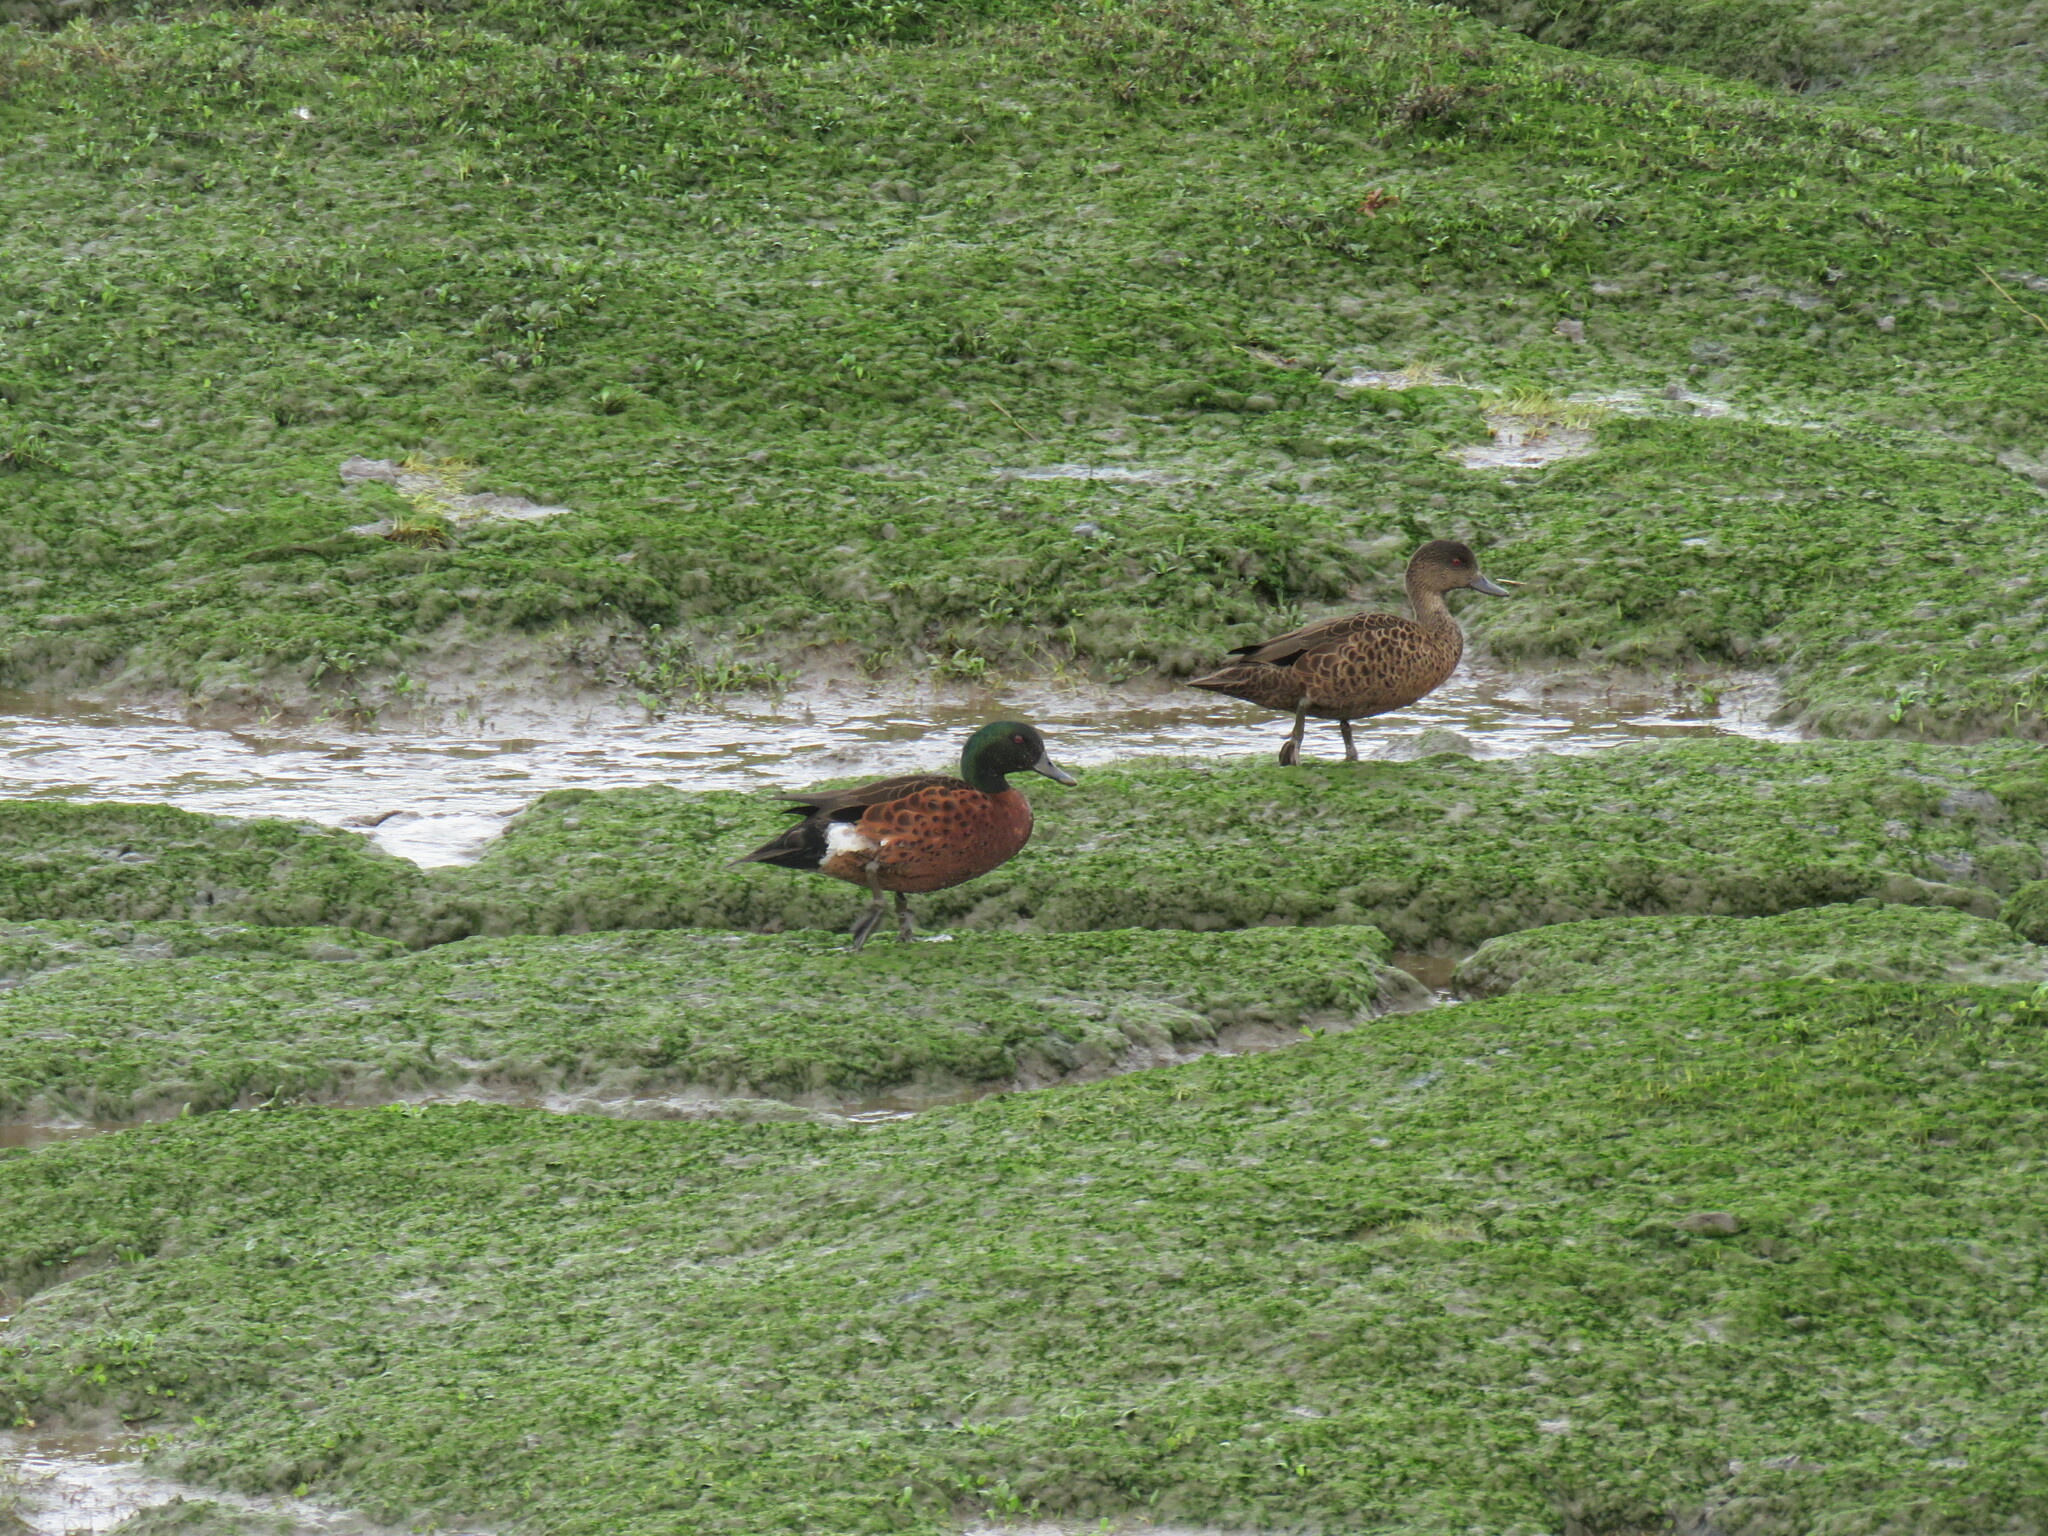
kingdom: Animalia
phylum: Chordata
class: Aves
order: Anseriformes
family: Anatidae
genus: Anas
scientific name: Anas castanea
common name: Chestnut teal
